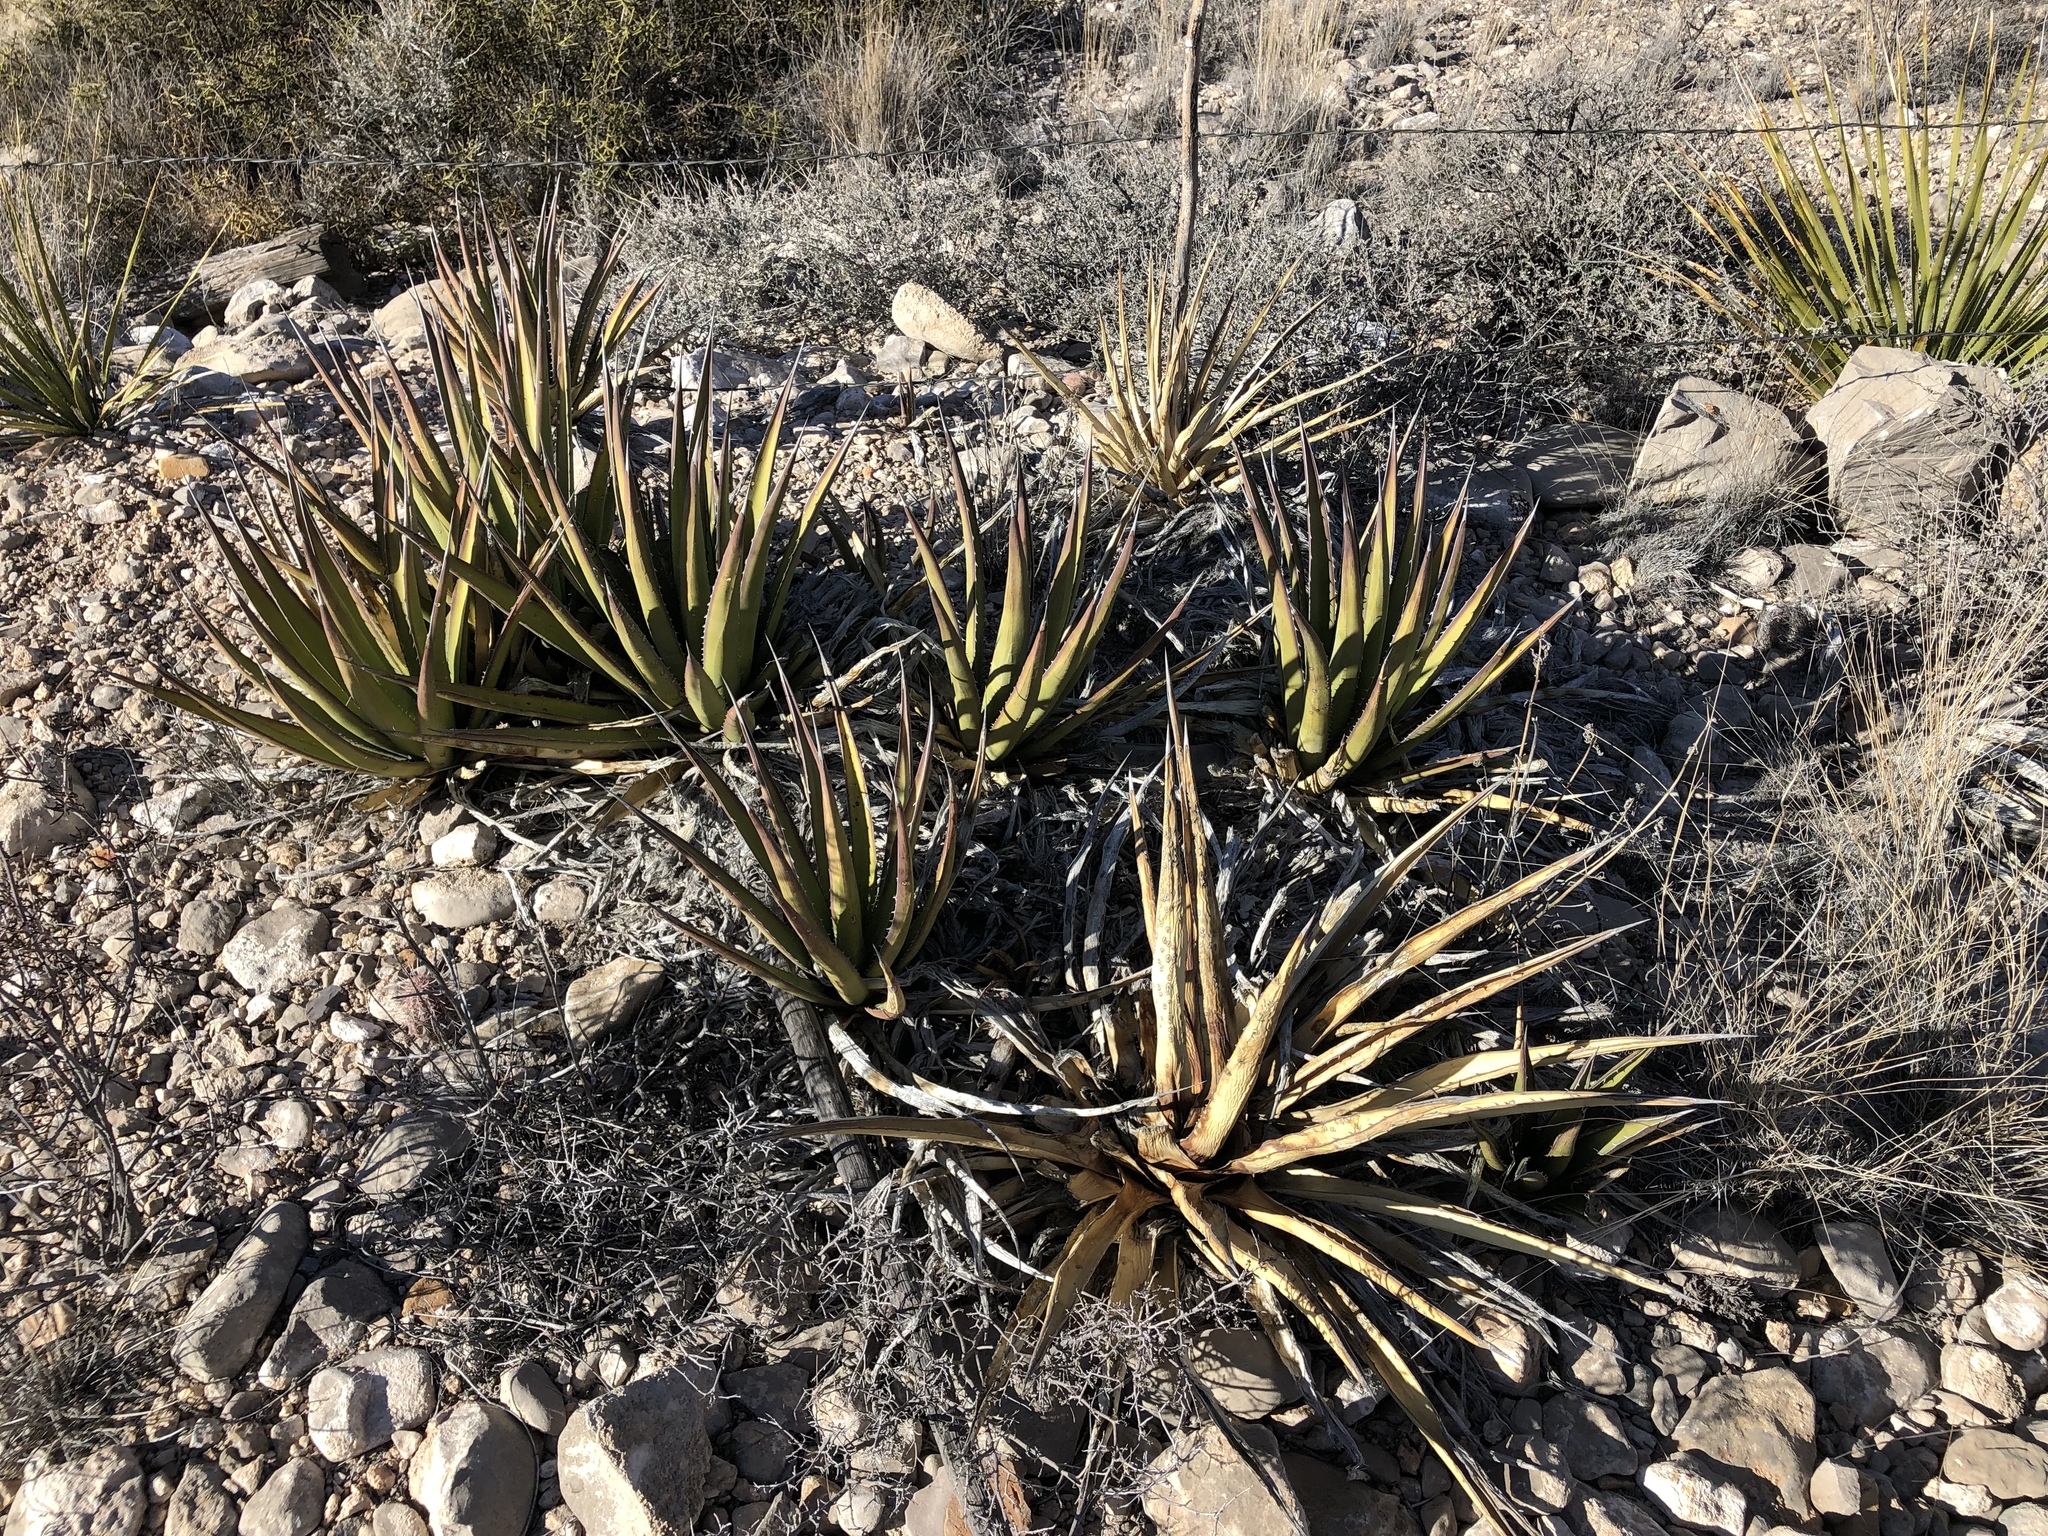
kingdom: Plantae
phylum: Tracheophyta
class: Liliopsida
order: Asparagales
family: Asparagaceae
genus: Agave
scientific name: Agave lechuguilla
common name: Lecheguilla agave
